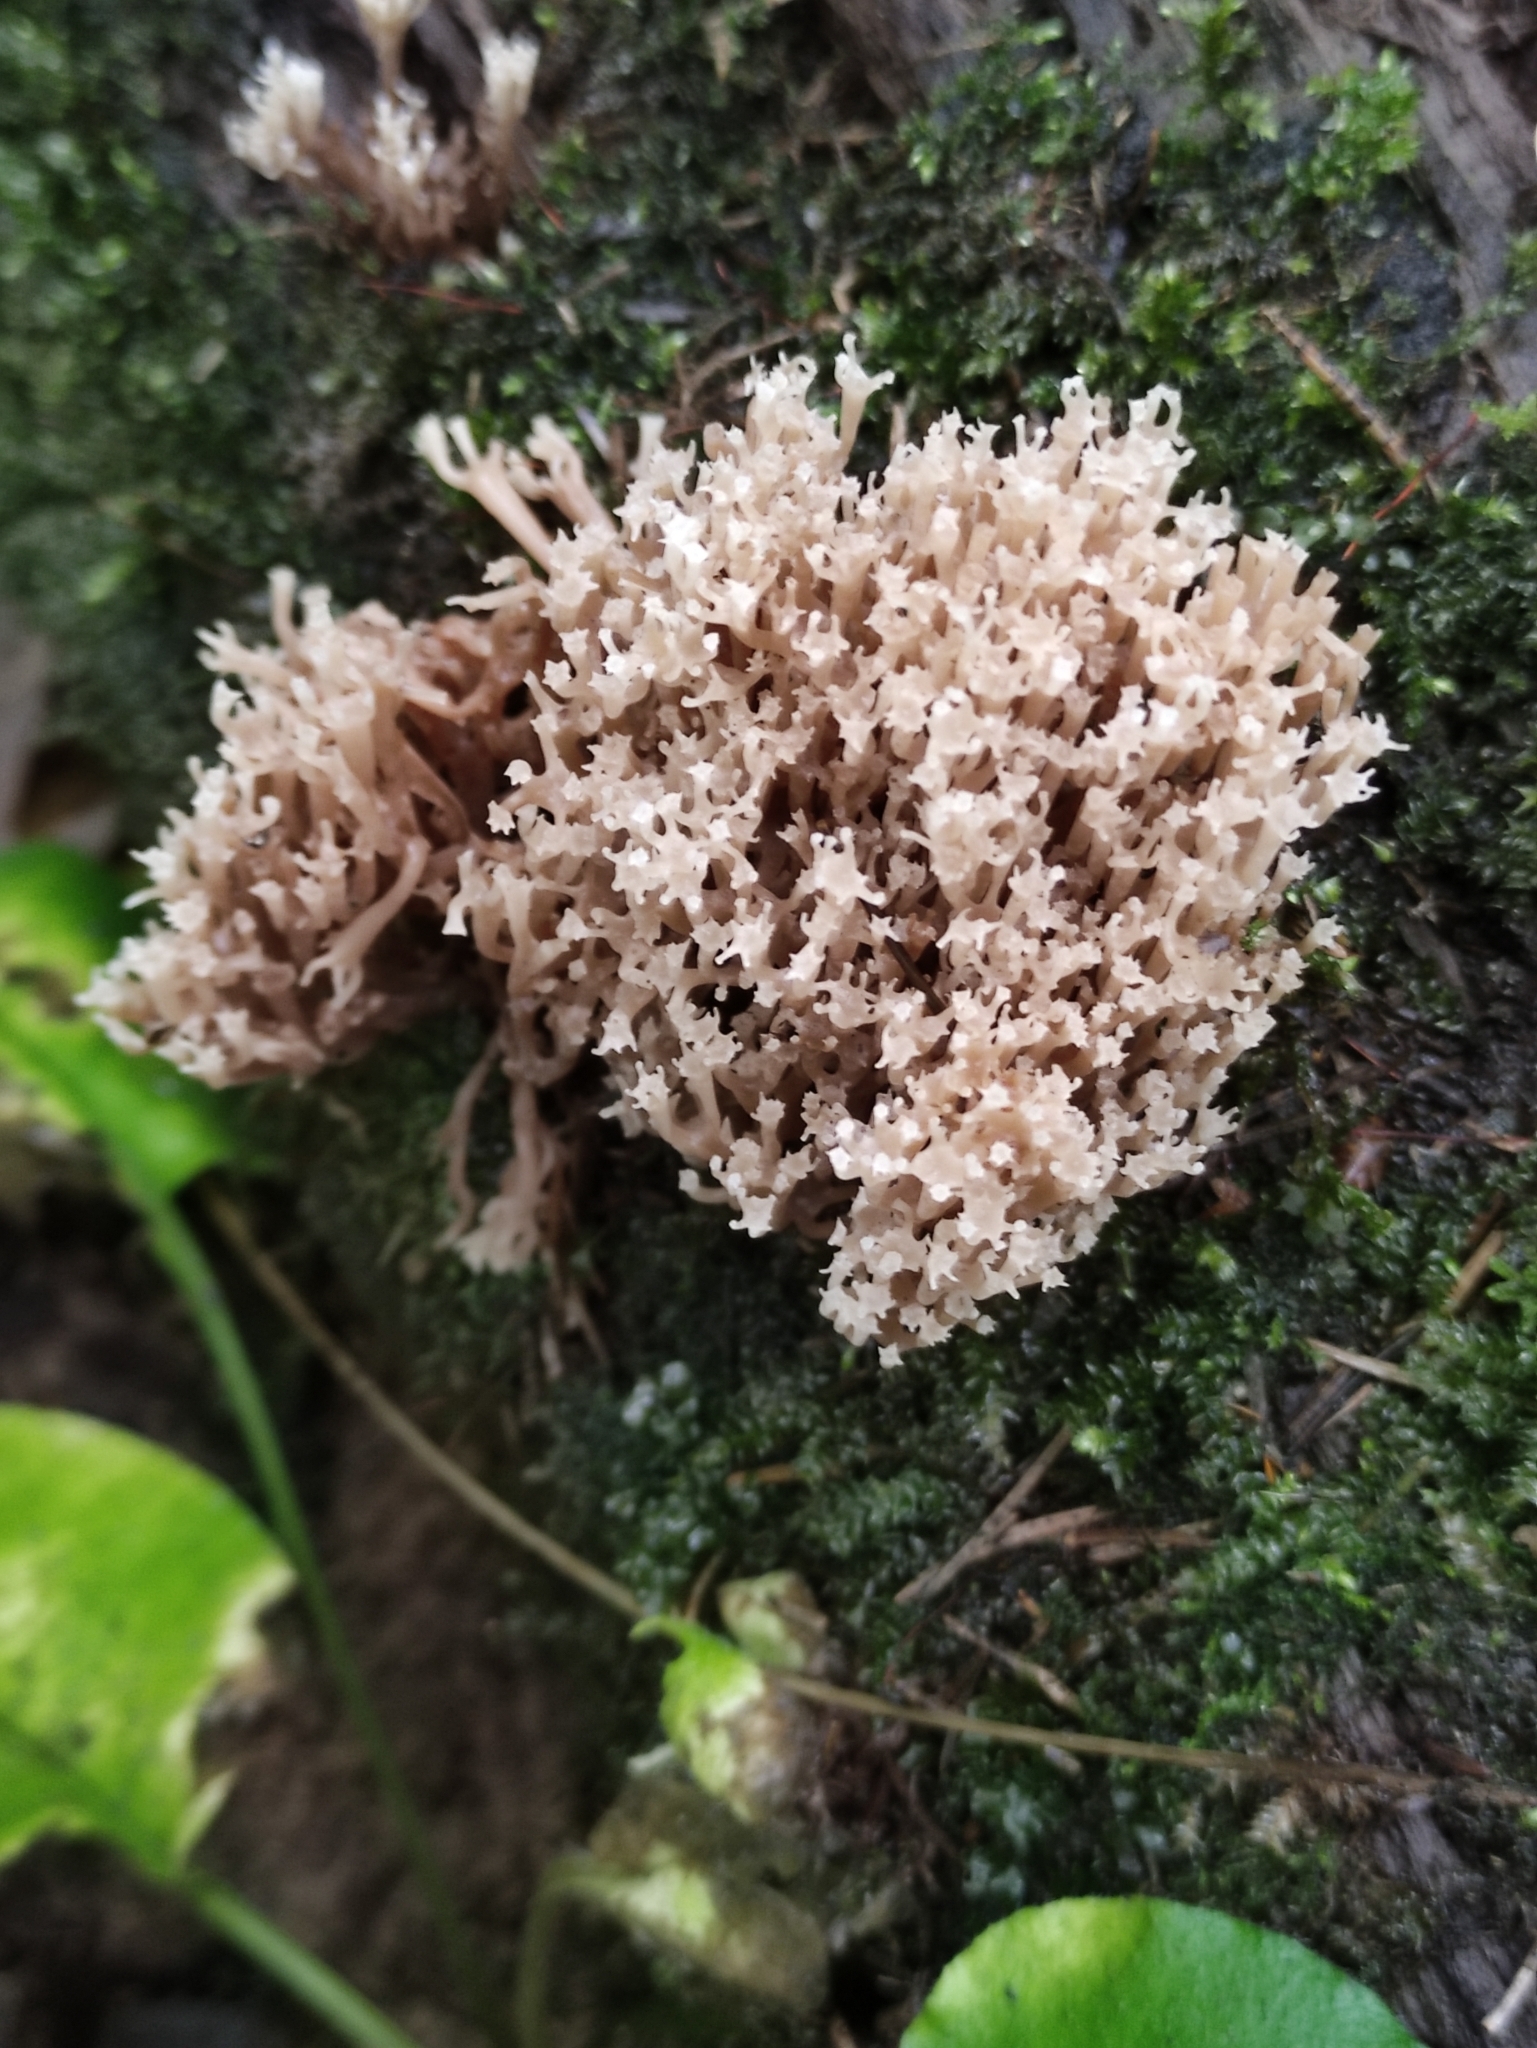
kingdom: Fungi
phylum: Basidiomycota
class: Agaricomycetes
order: Russulales
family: Auriscalpiaceae
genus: Artomyces
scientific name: Artomyces pyxidatus
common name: Crown-tipped coral fungus
